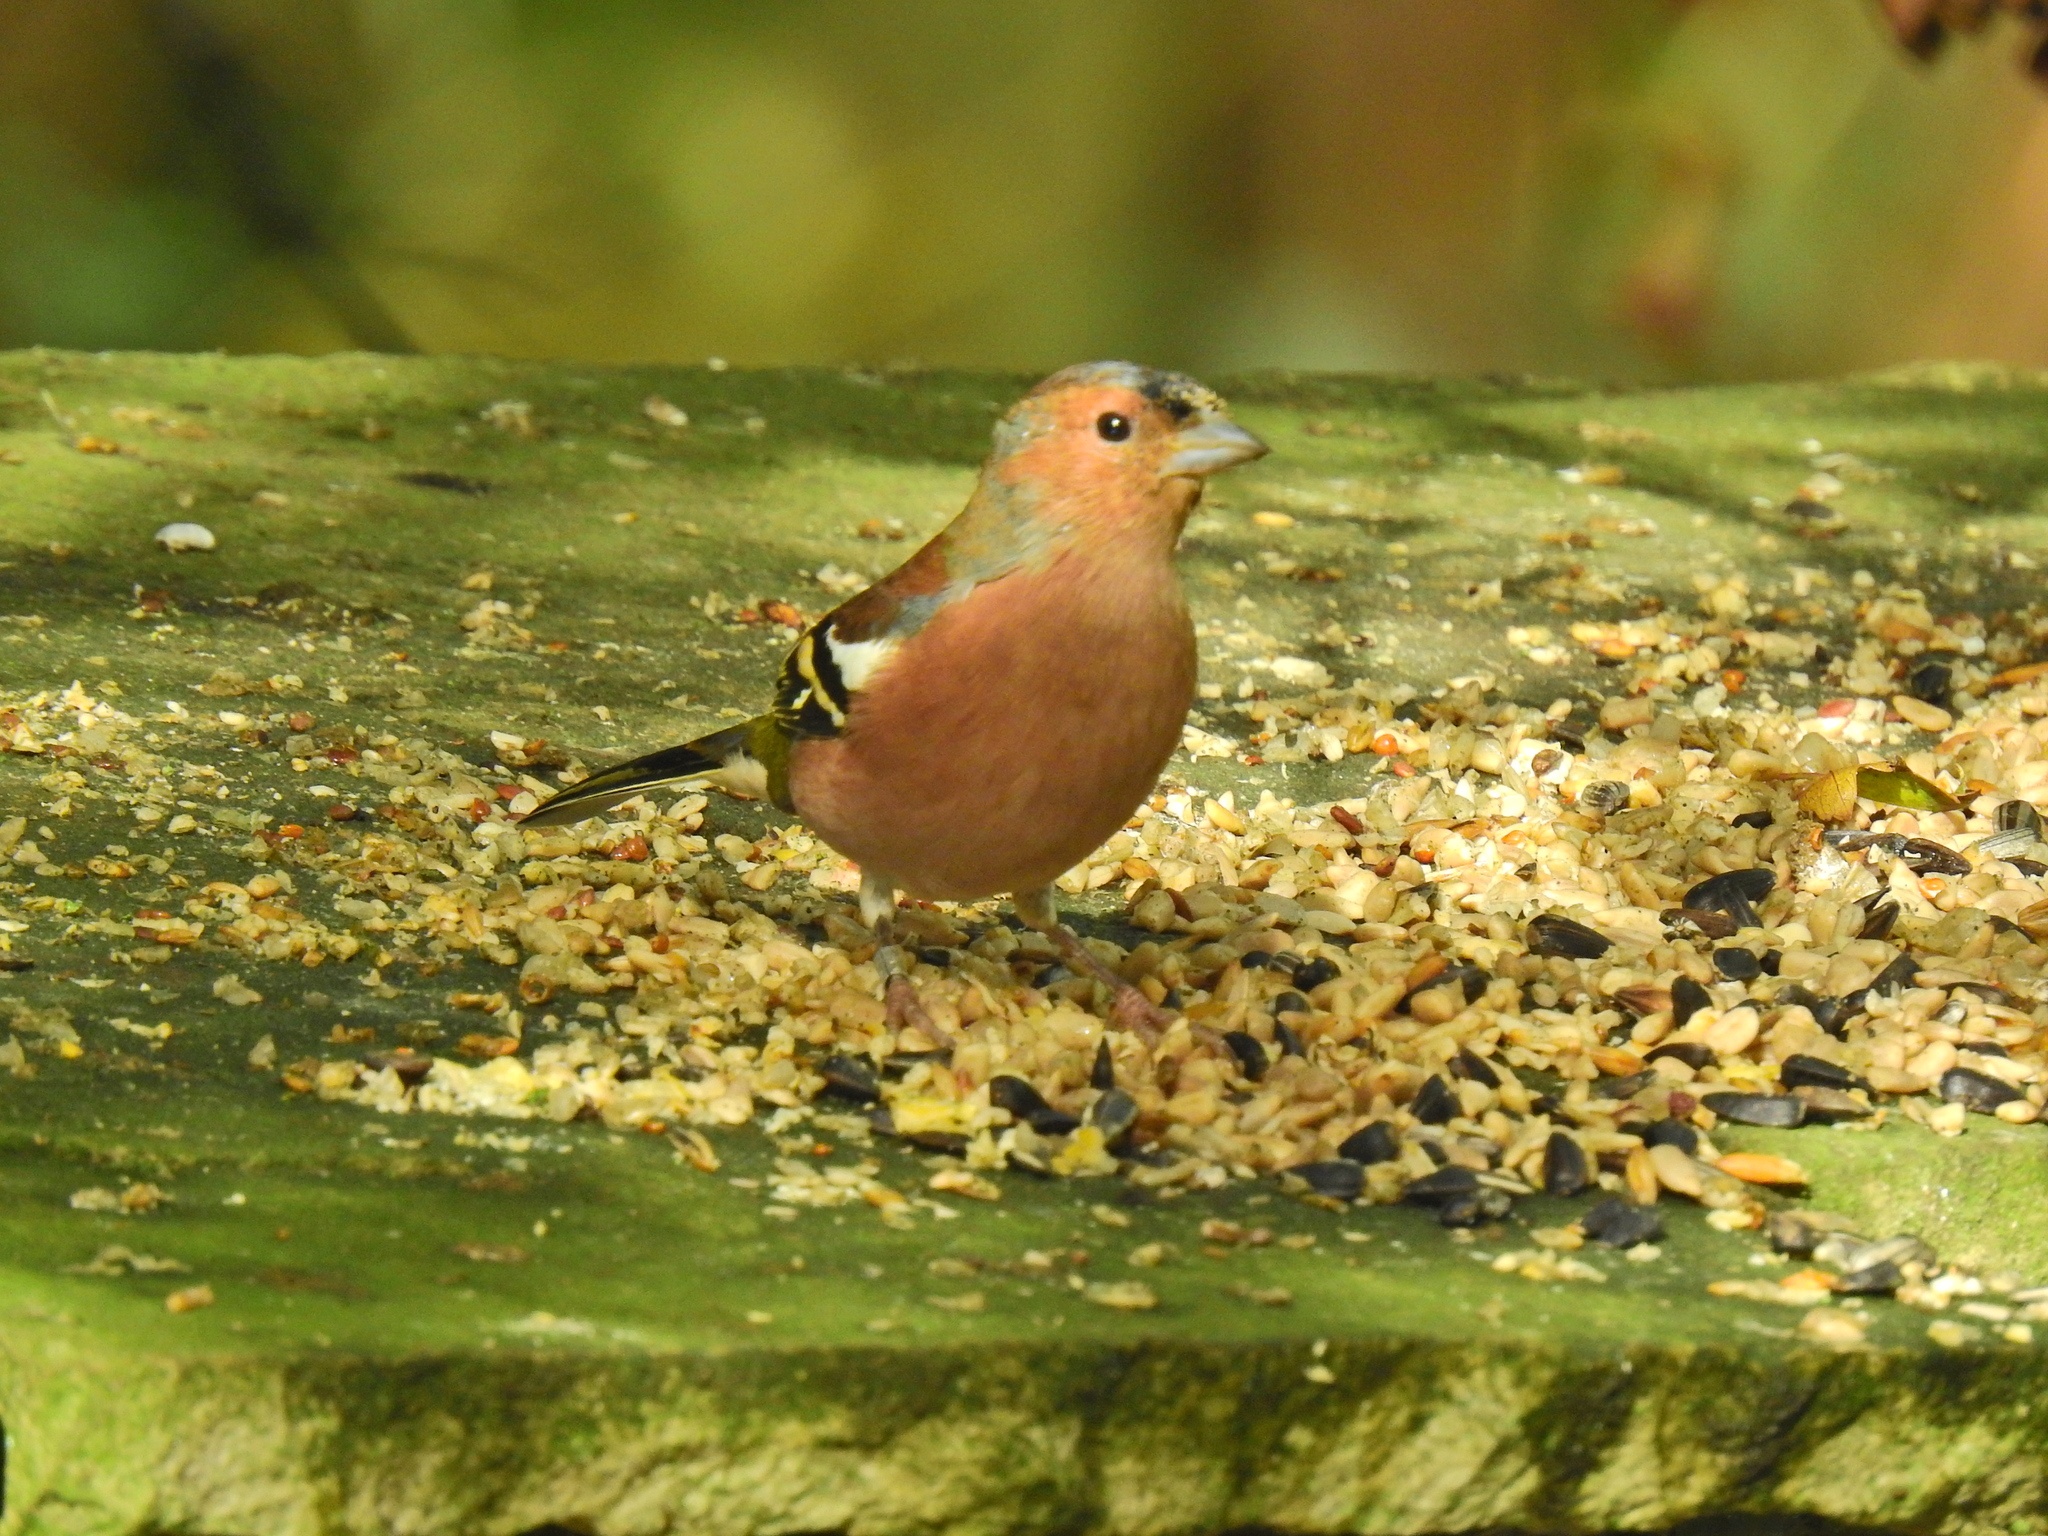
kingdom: Animalia
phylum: Chordata
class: Aves
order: Passeriformes
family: Fringillidae
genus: Fringilla
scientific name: Fringilla coelebs
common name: Common chaffinch
